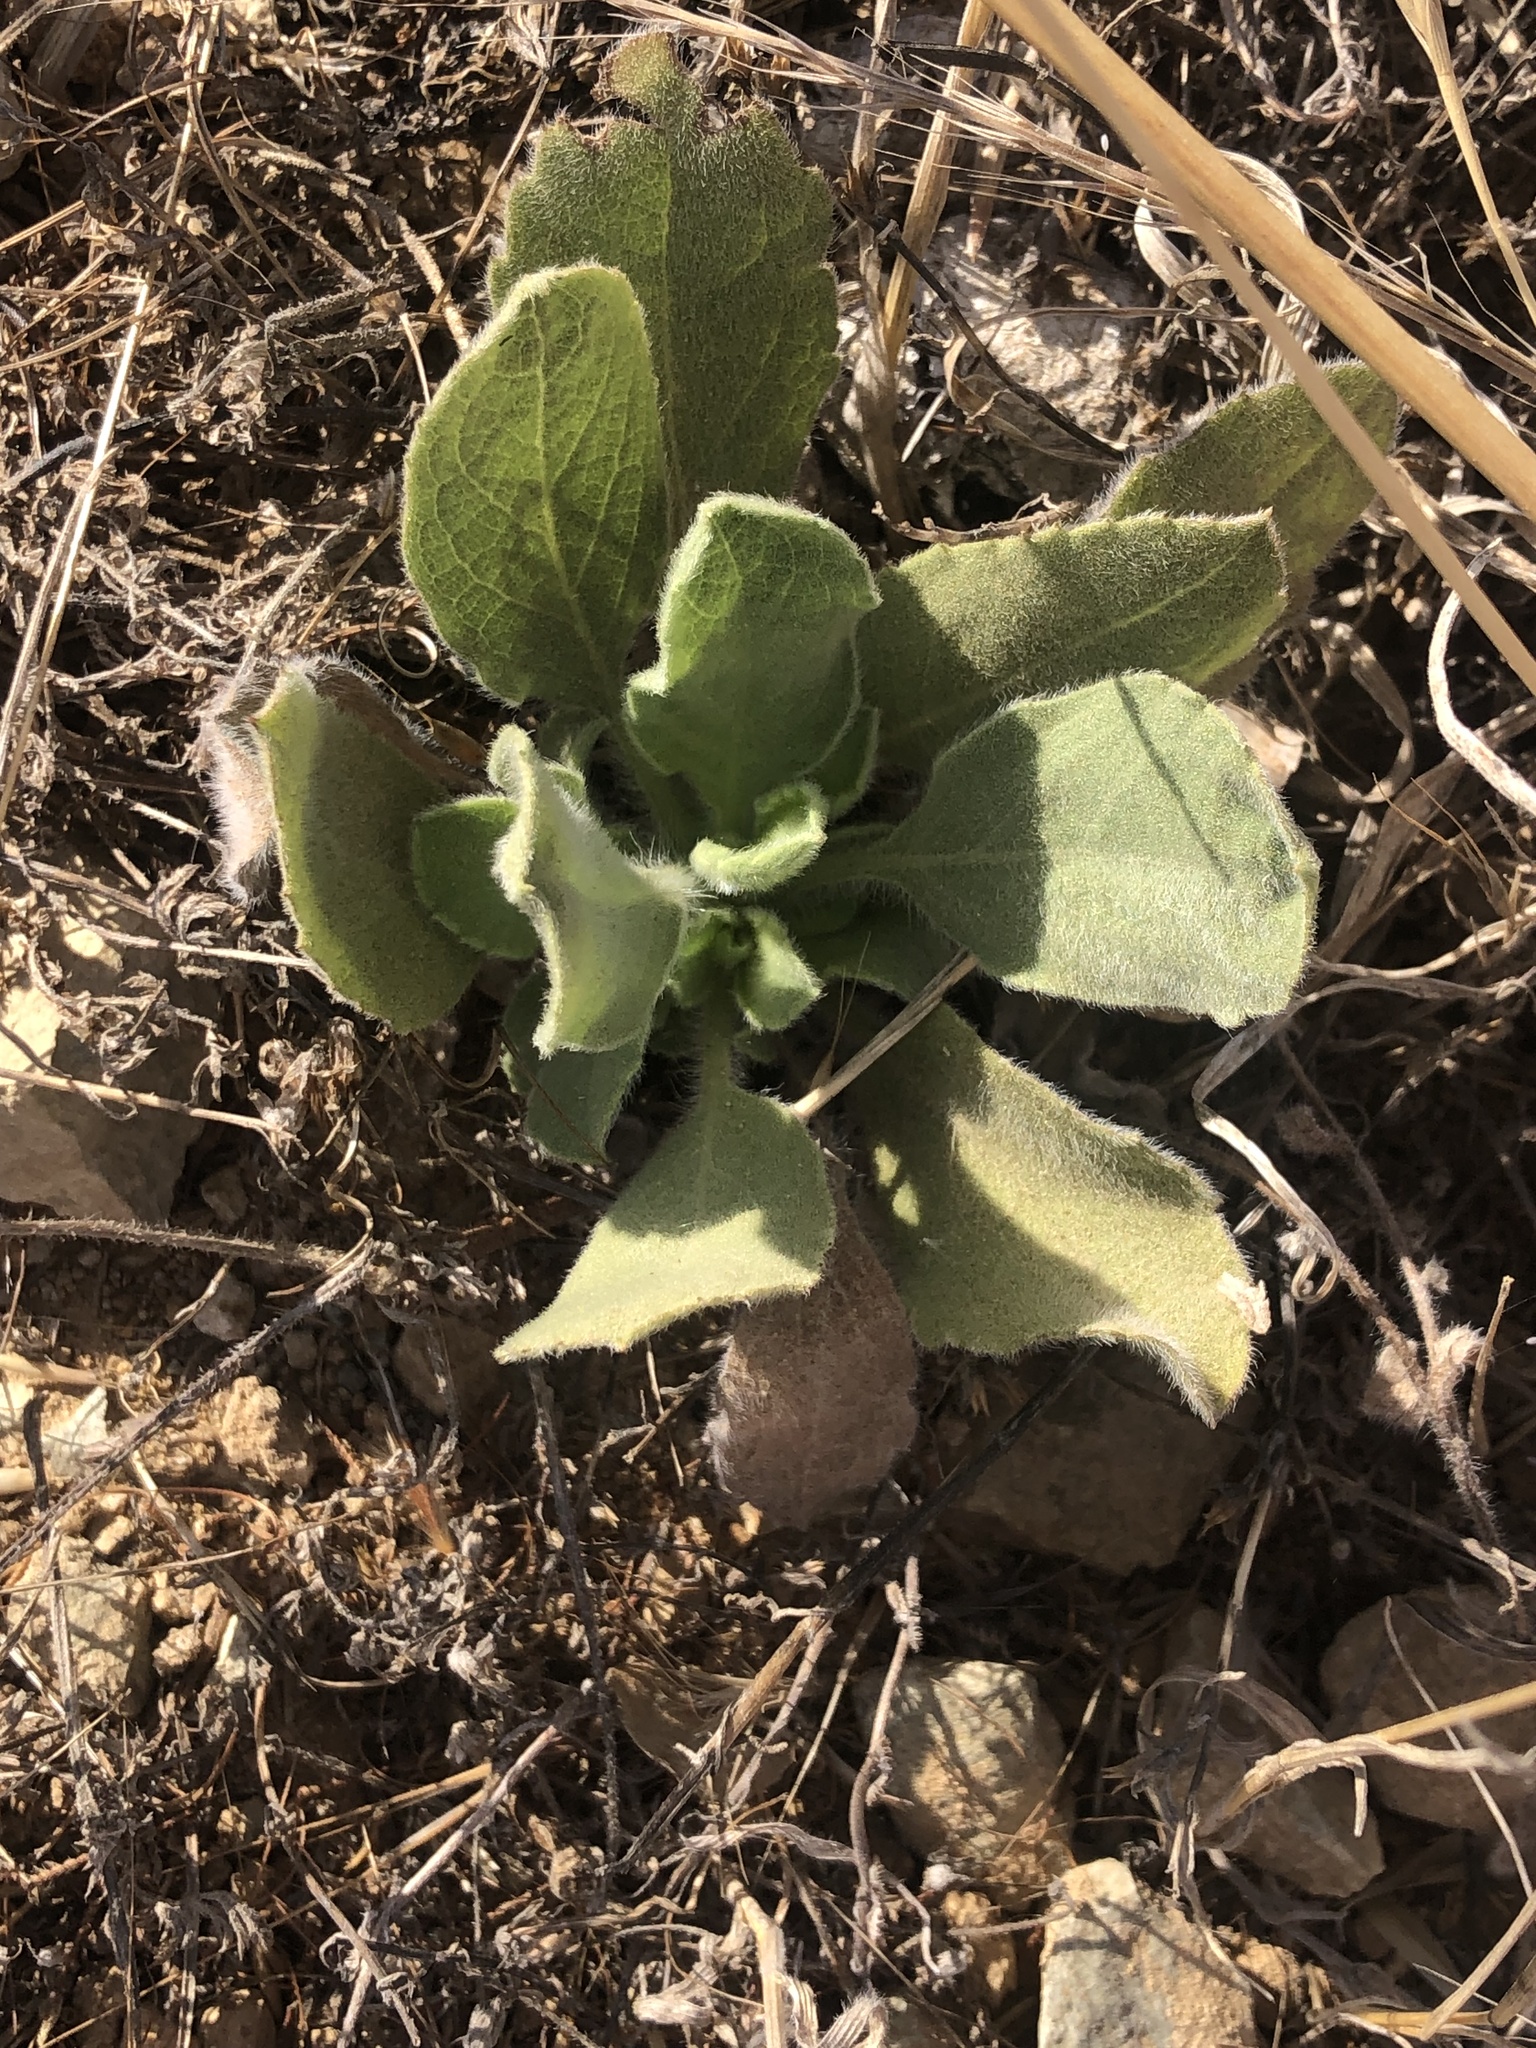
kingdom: Plantae
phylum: Tracheophyta
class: Magnoliopsida
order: Asterales
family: Asteraceae
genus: Heterotheca
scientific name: Heterotheca grandiflora
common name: Telegraphweed
